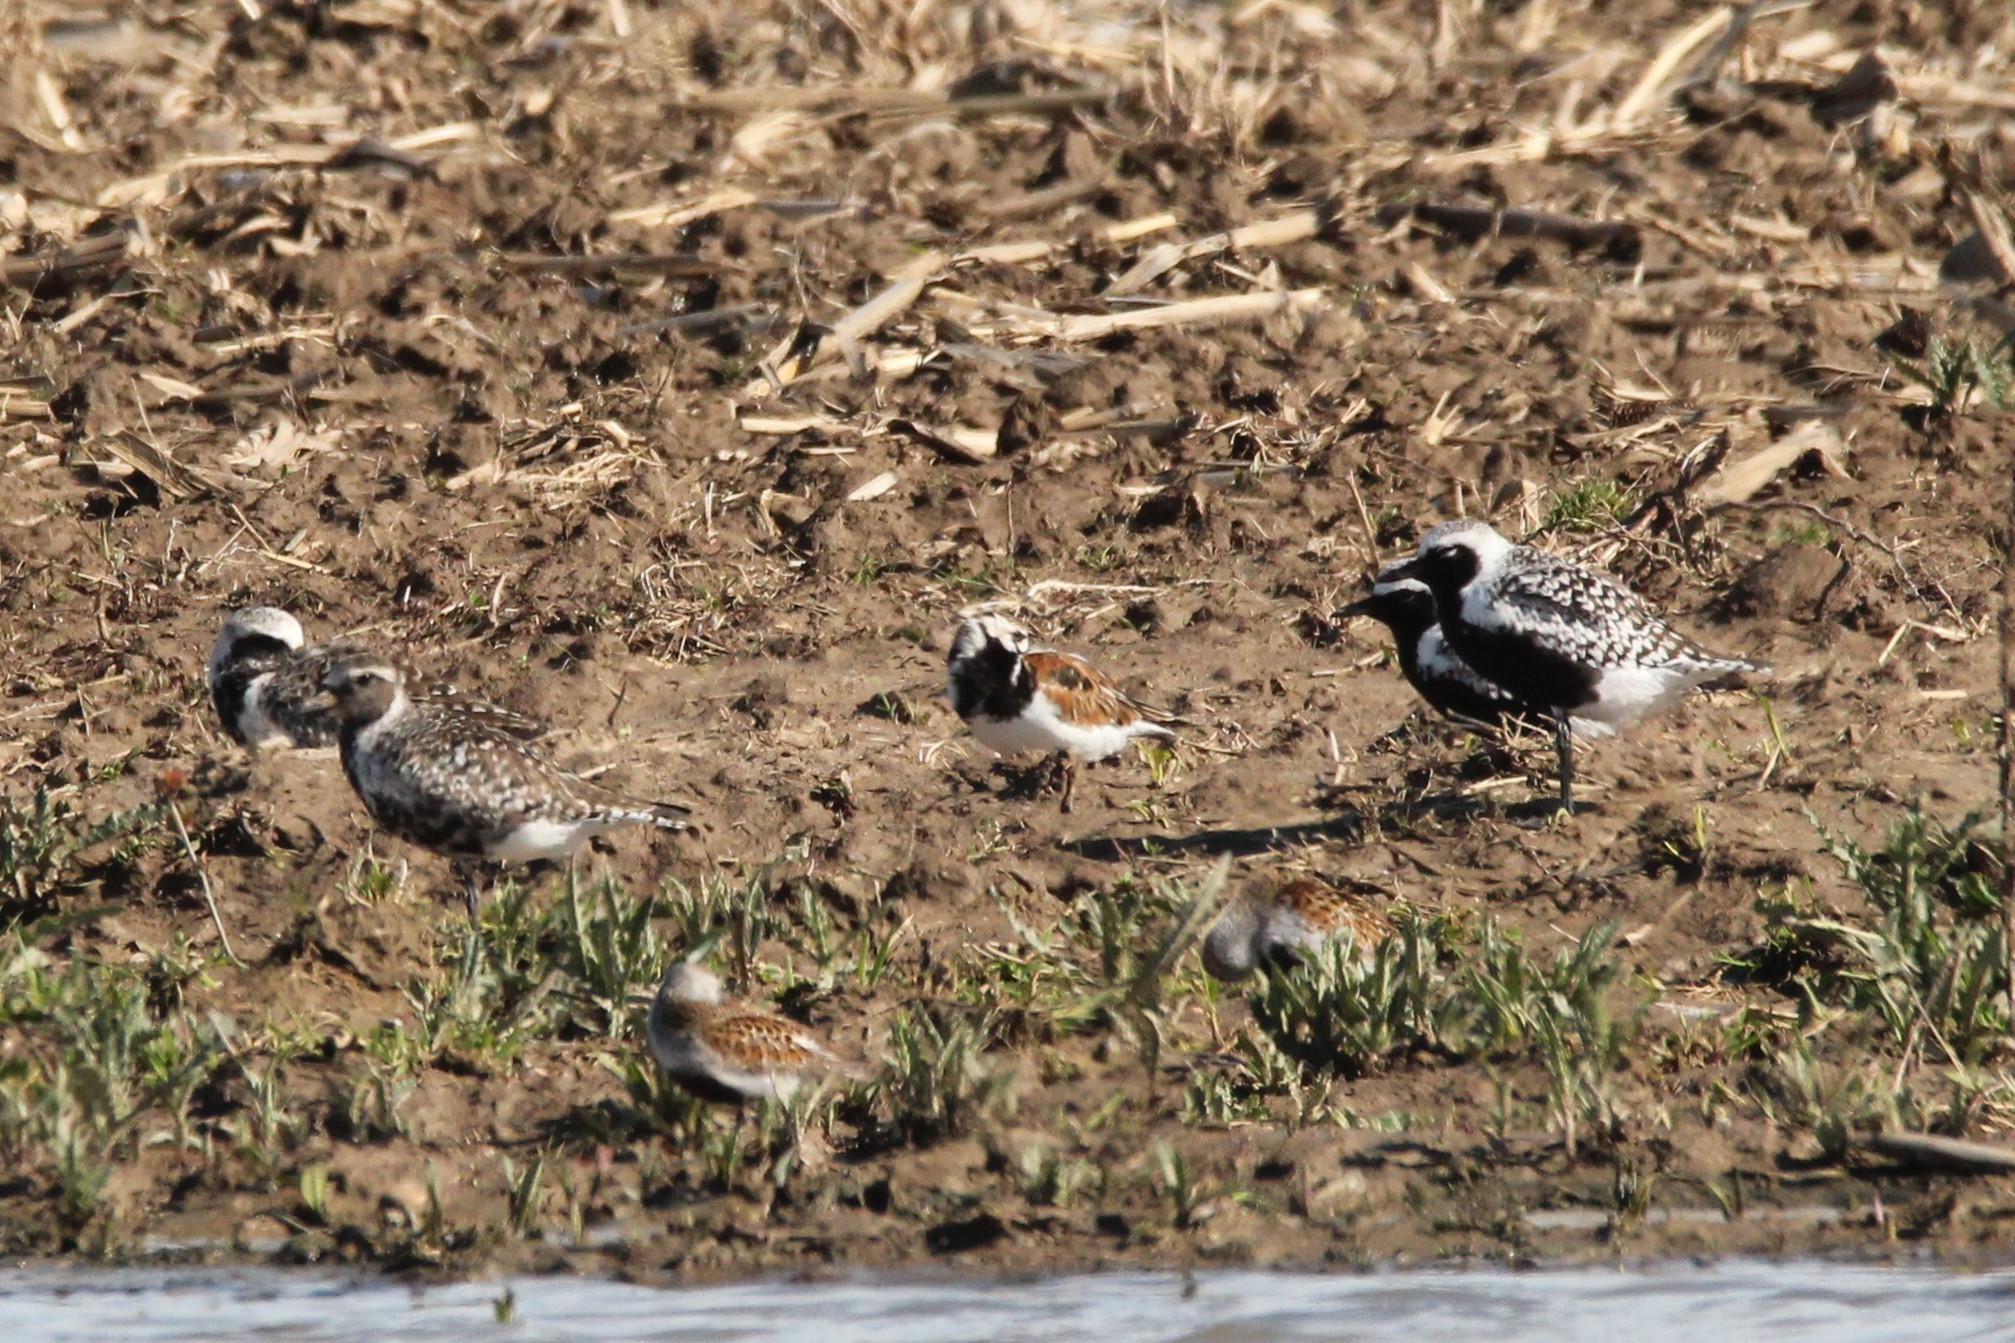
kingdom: Animalia
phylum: Chordata
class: Aves
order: Charadriiformes
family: Scolopacidae
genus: Arenaria
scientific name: Arenaria interpres
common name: Ruddy turnstone
